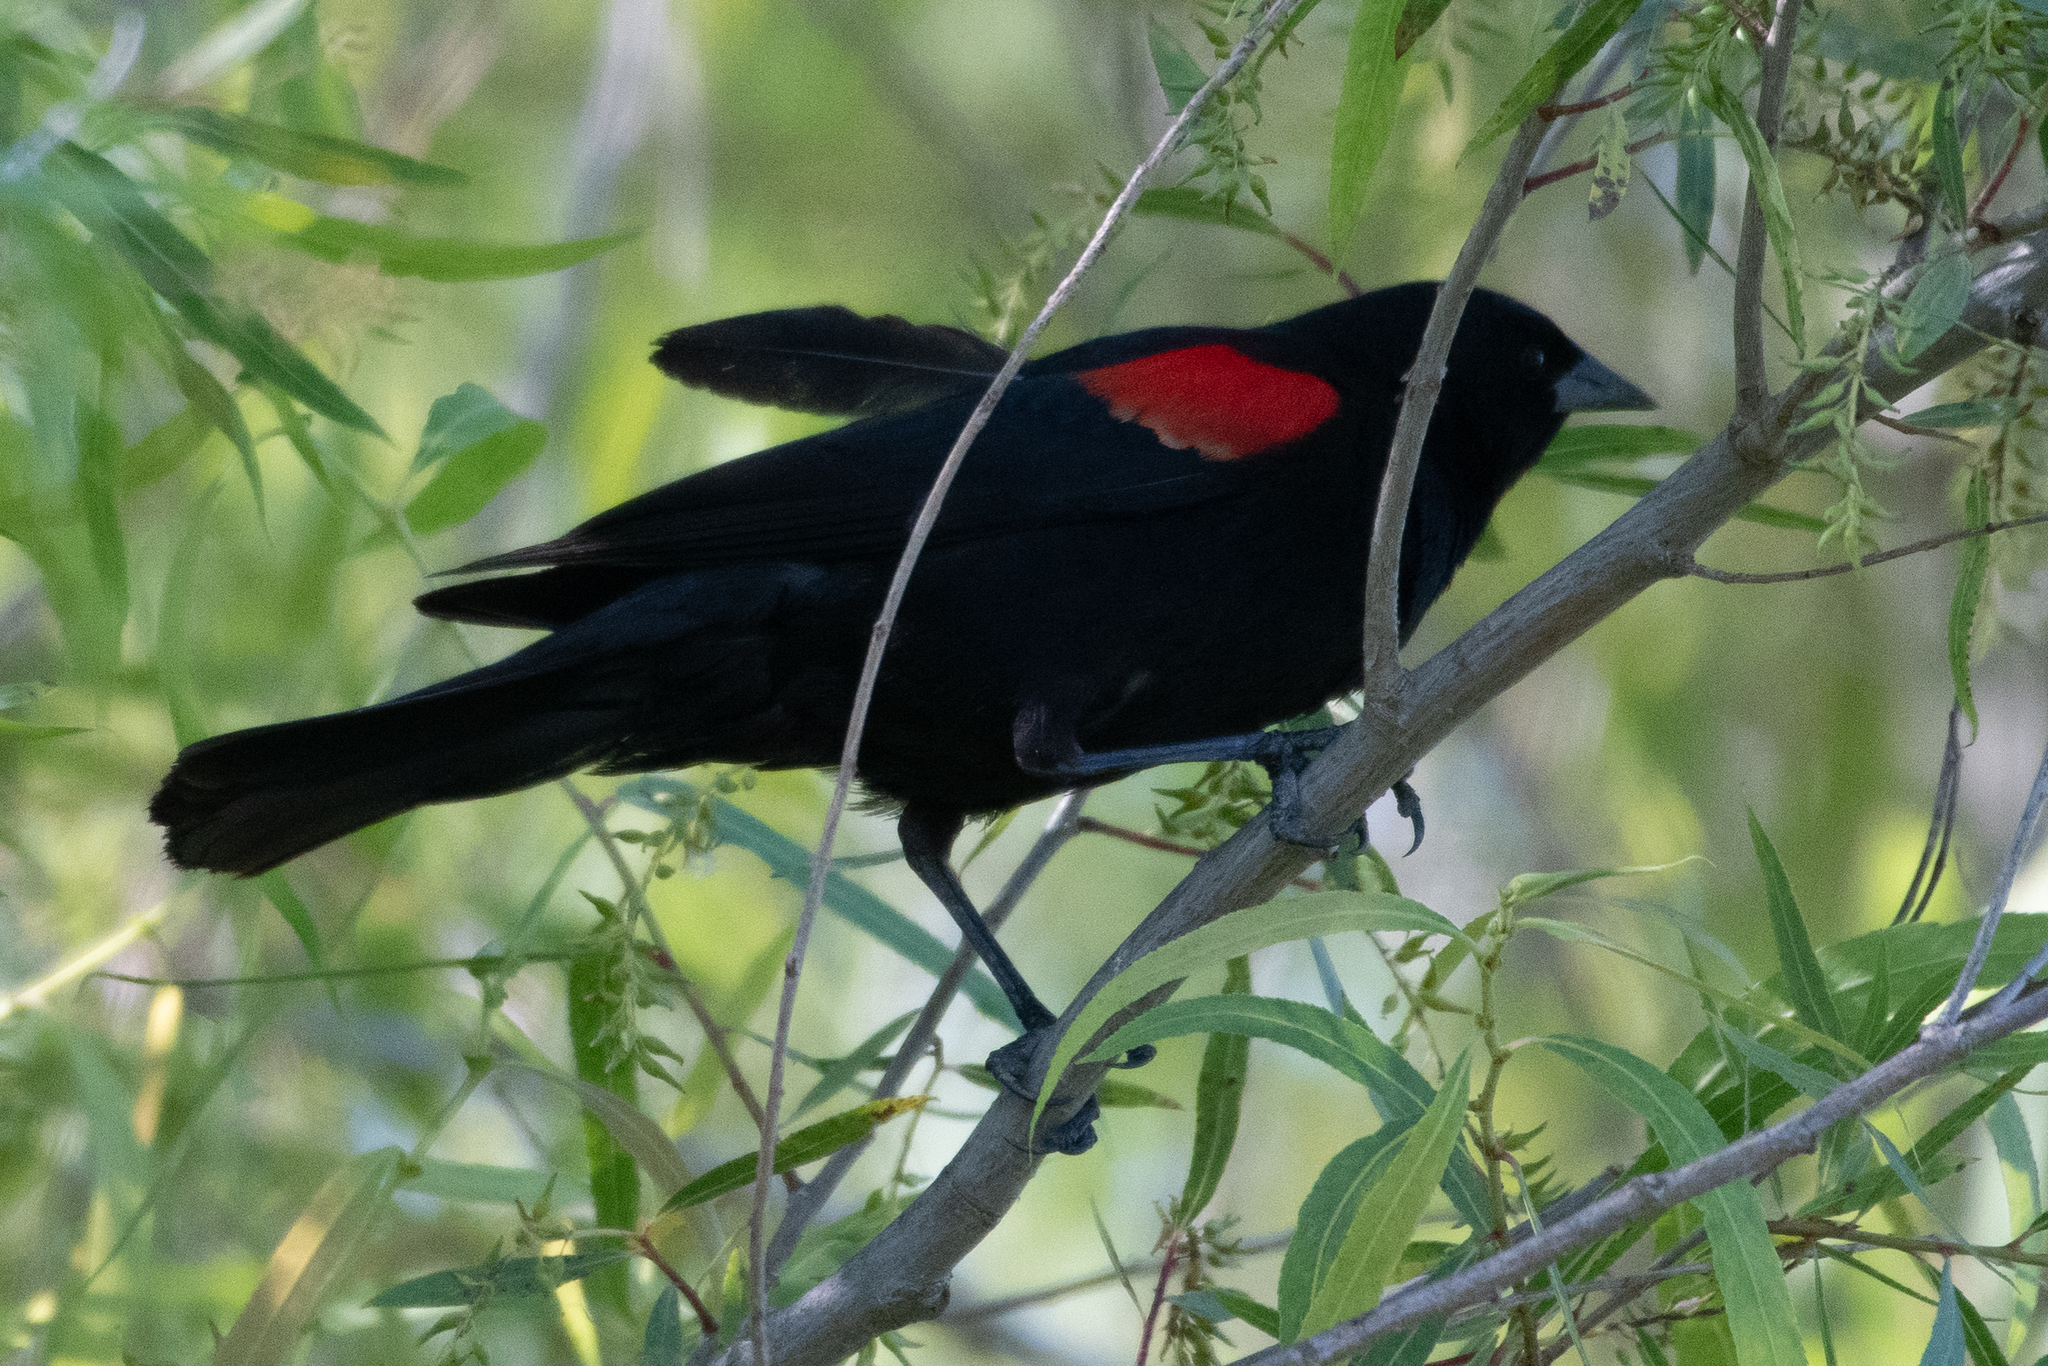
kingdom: Animalia
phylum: Chordata
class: Aves
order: Passeriformes
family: Icteridae
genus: Agelaius
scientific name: Agelaius phoeniceus
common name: Red-winged blackbird
